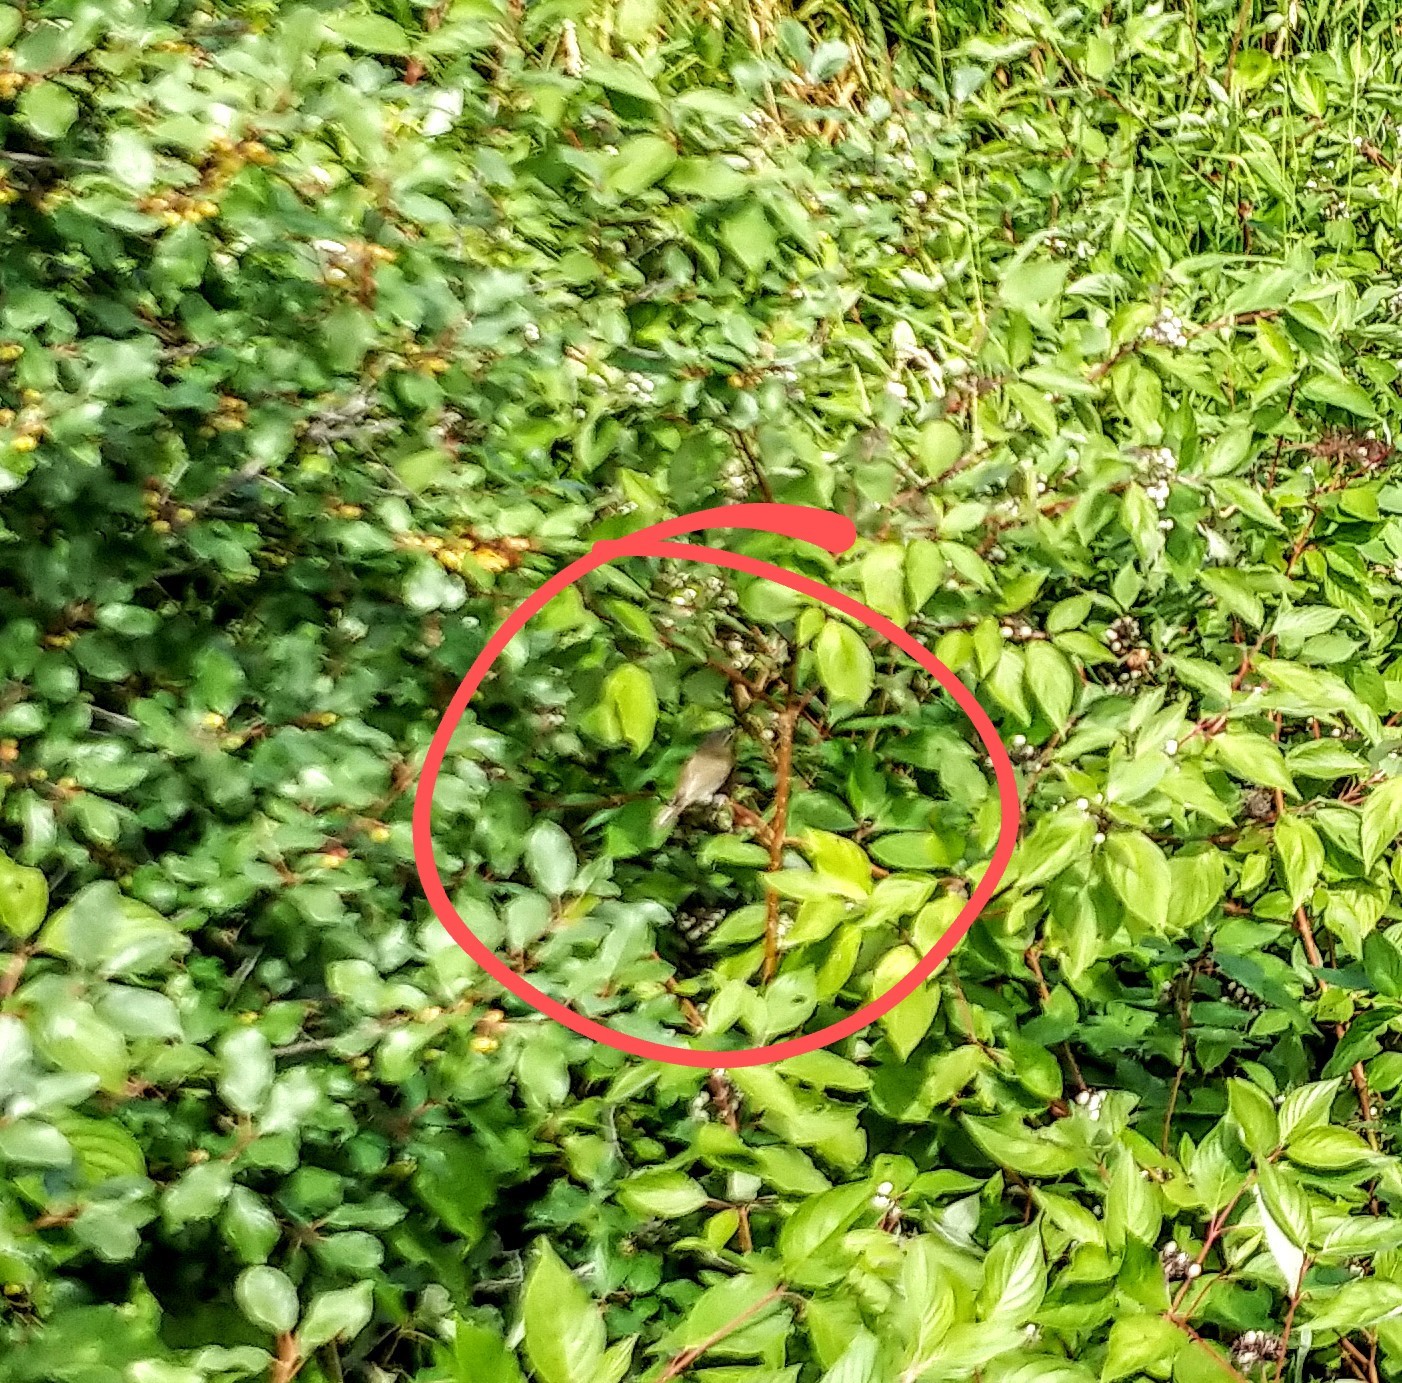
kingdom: Animalia
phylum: Chordata
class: Aves
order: Passeriformes
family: Vireonidae
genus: Vireo
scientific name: Vireo olivaceus
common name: Red-eyed vireo
